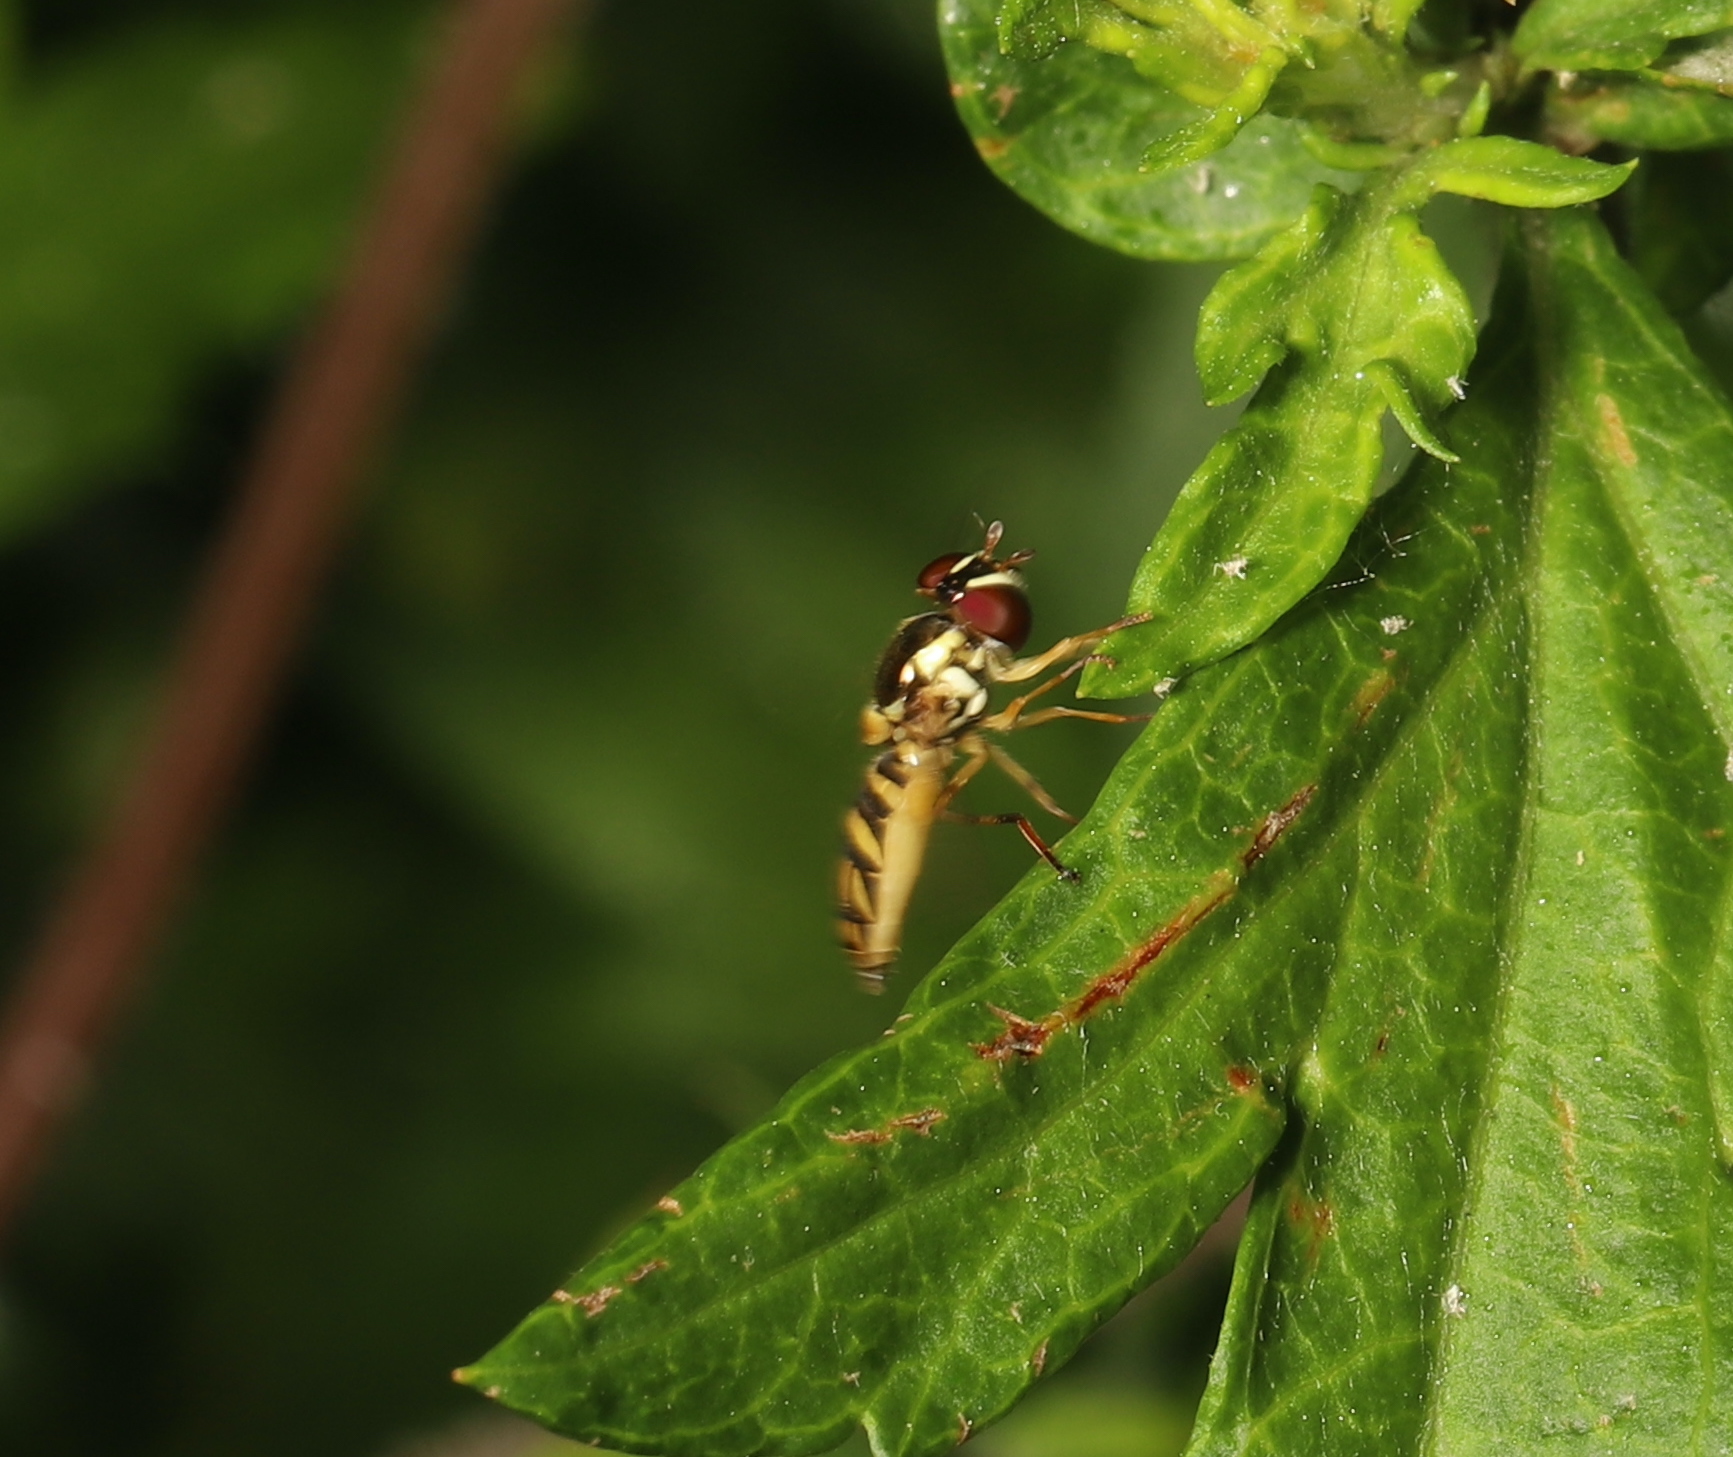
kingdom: Animalia
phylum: Arthropoda
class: Insecta
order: Diptera
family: Syrphidae
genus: Allograpta
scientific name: Allograpta obliqua
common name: Common oblique syrphid
